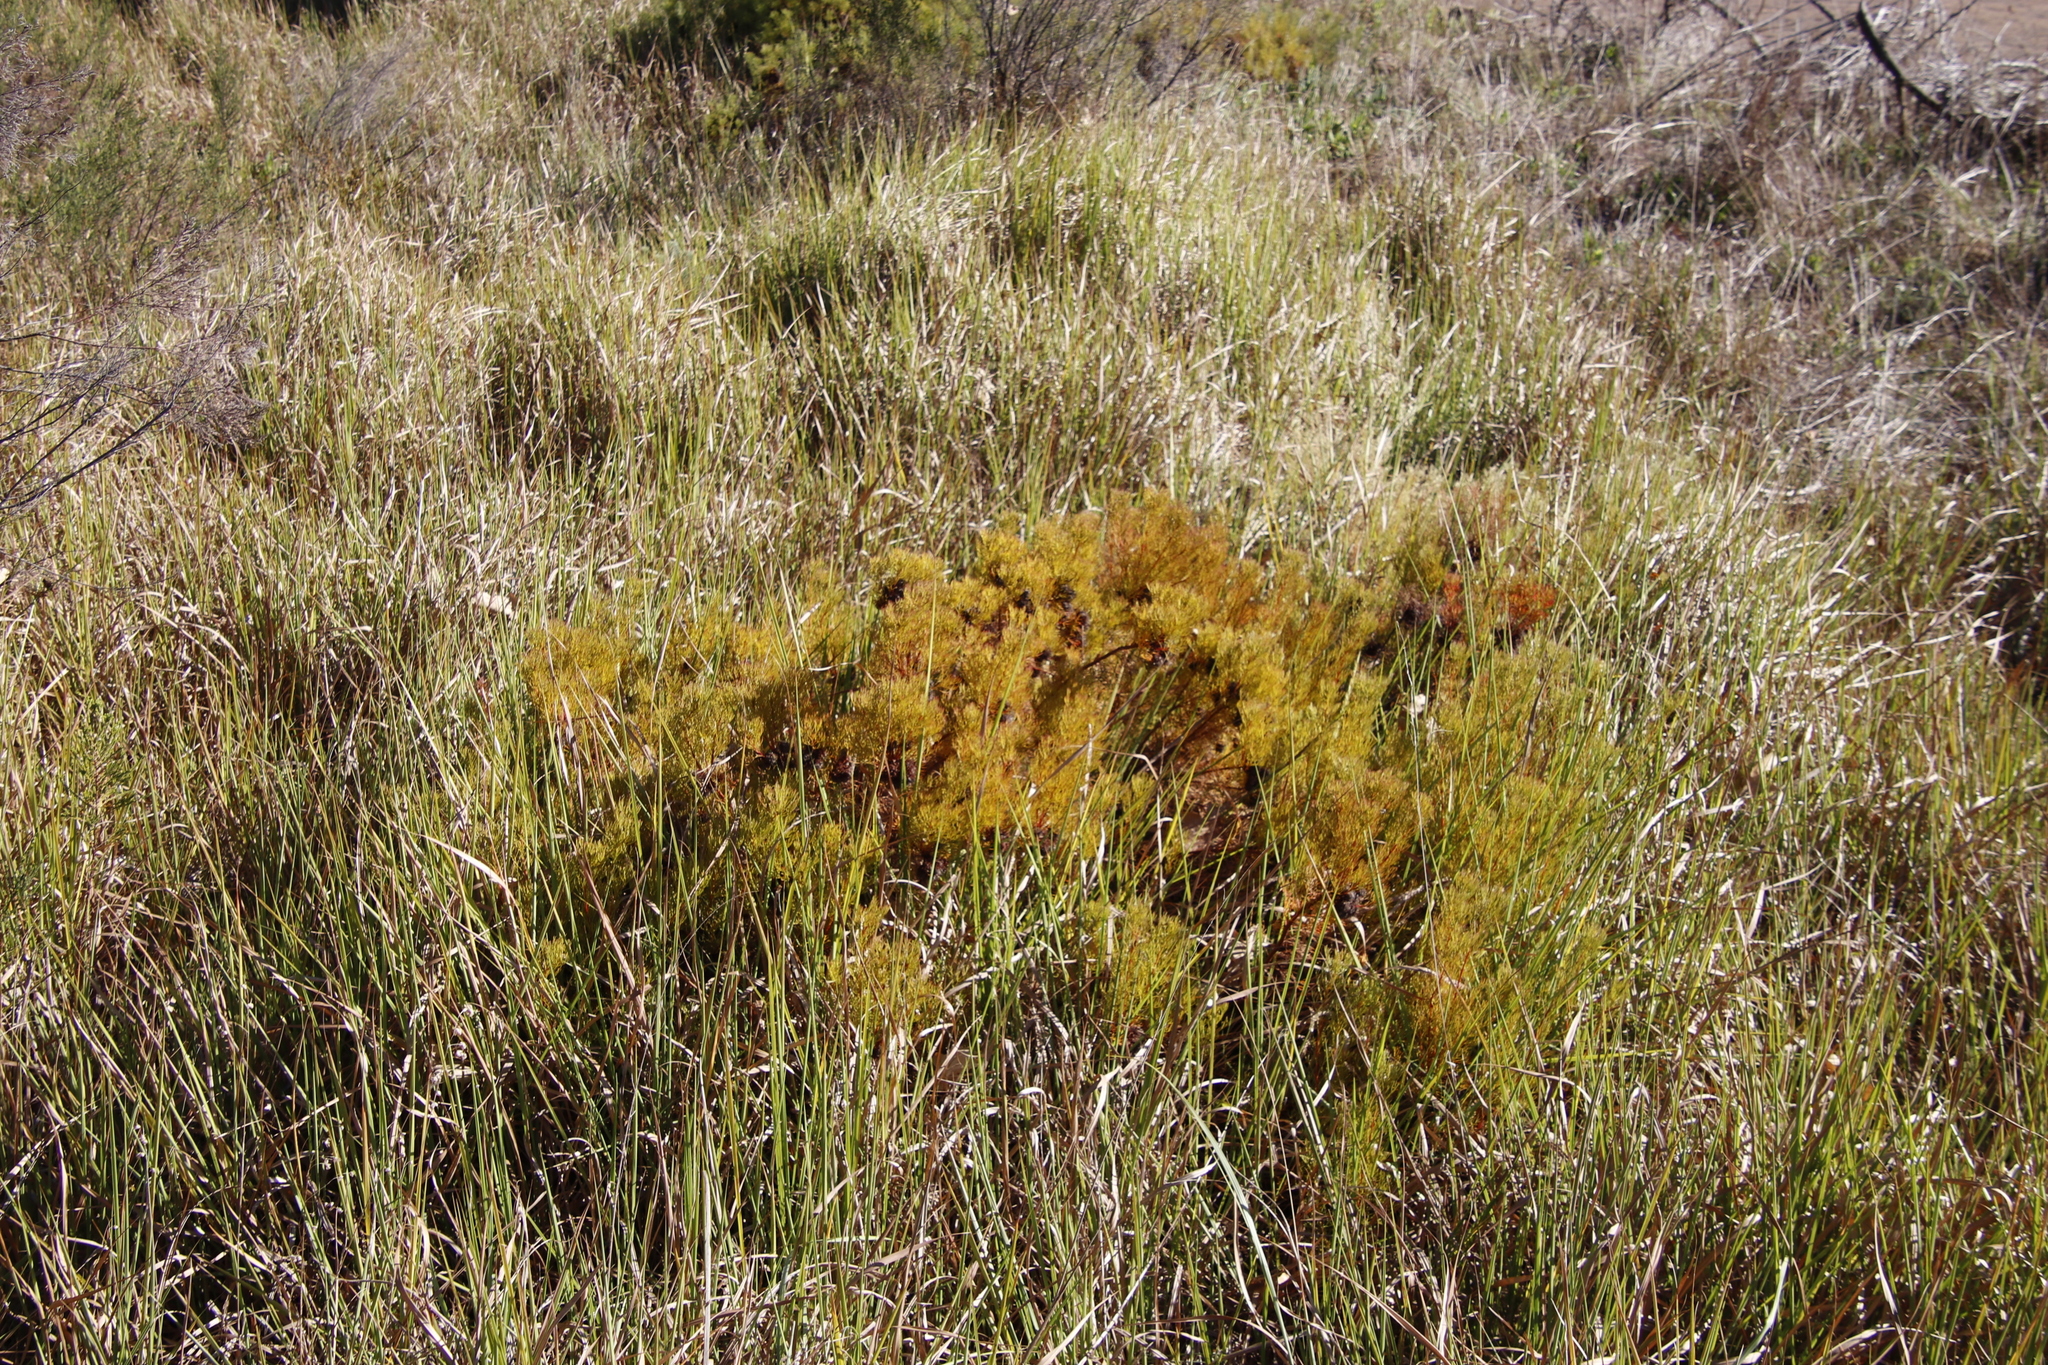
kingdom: Plantae
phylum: Tracheophyta
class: Magnoliopsida
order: Proteales
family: Proteaceae
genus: Serruria
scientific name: Serruria
